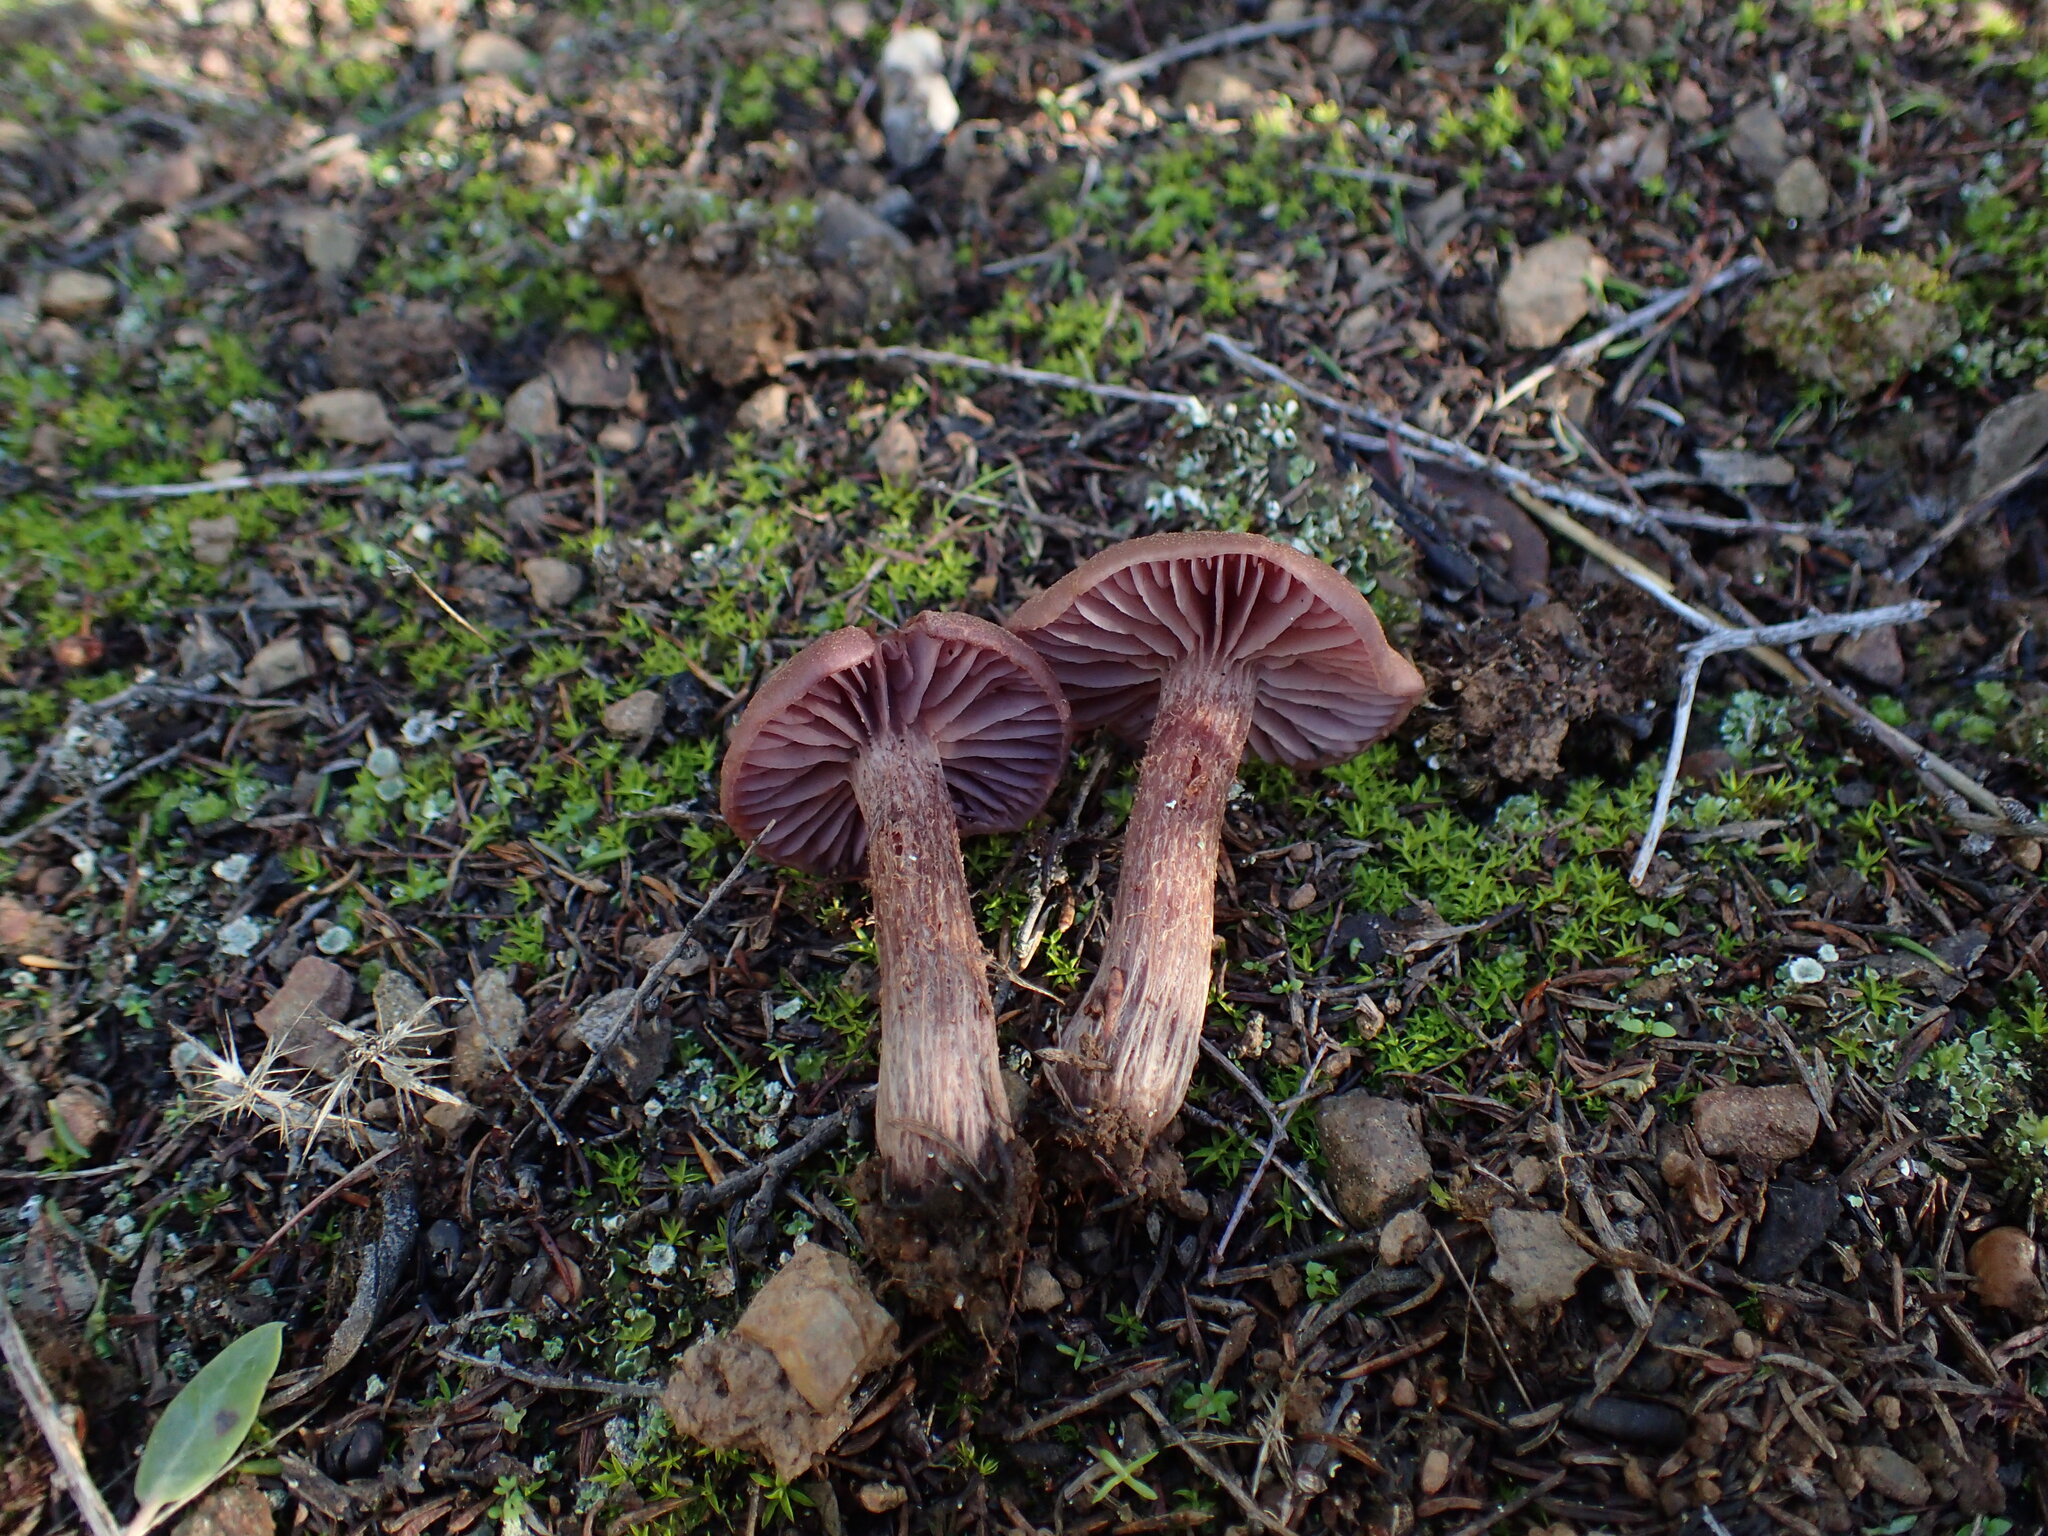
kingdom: Fungi
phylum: Basidiomycota
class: Agaricomycetes
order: Agaricales
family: Hydnangiaceae
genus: Laccaria
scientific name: Laccaria amethysteo-occidentalis
